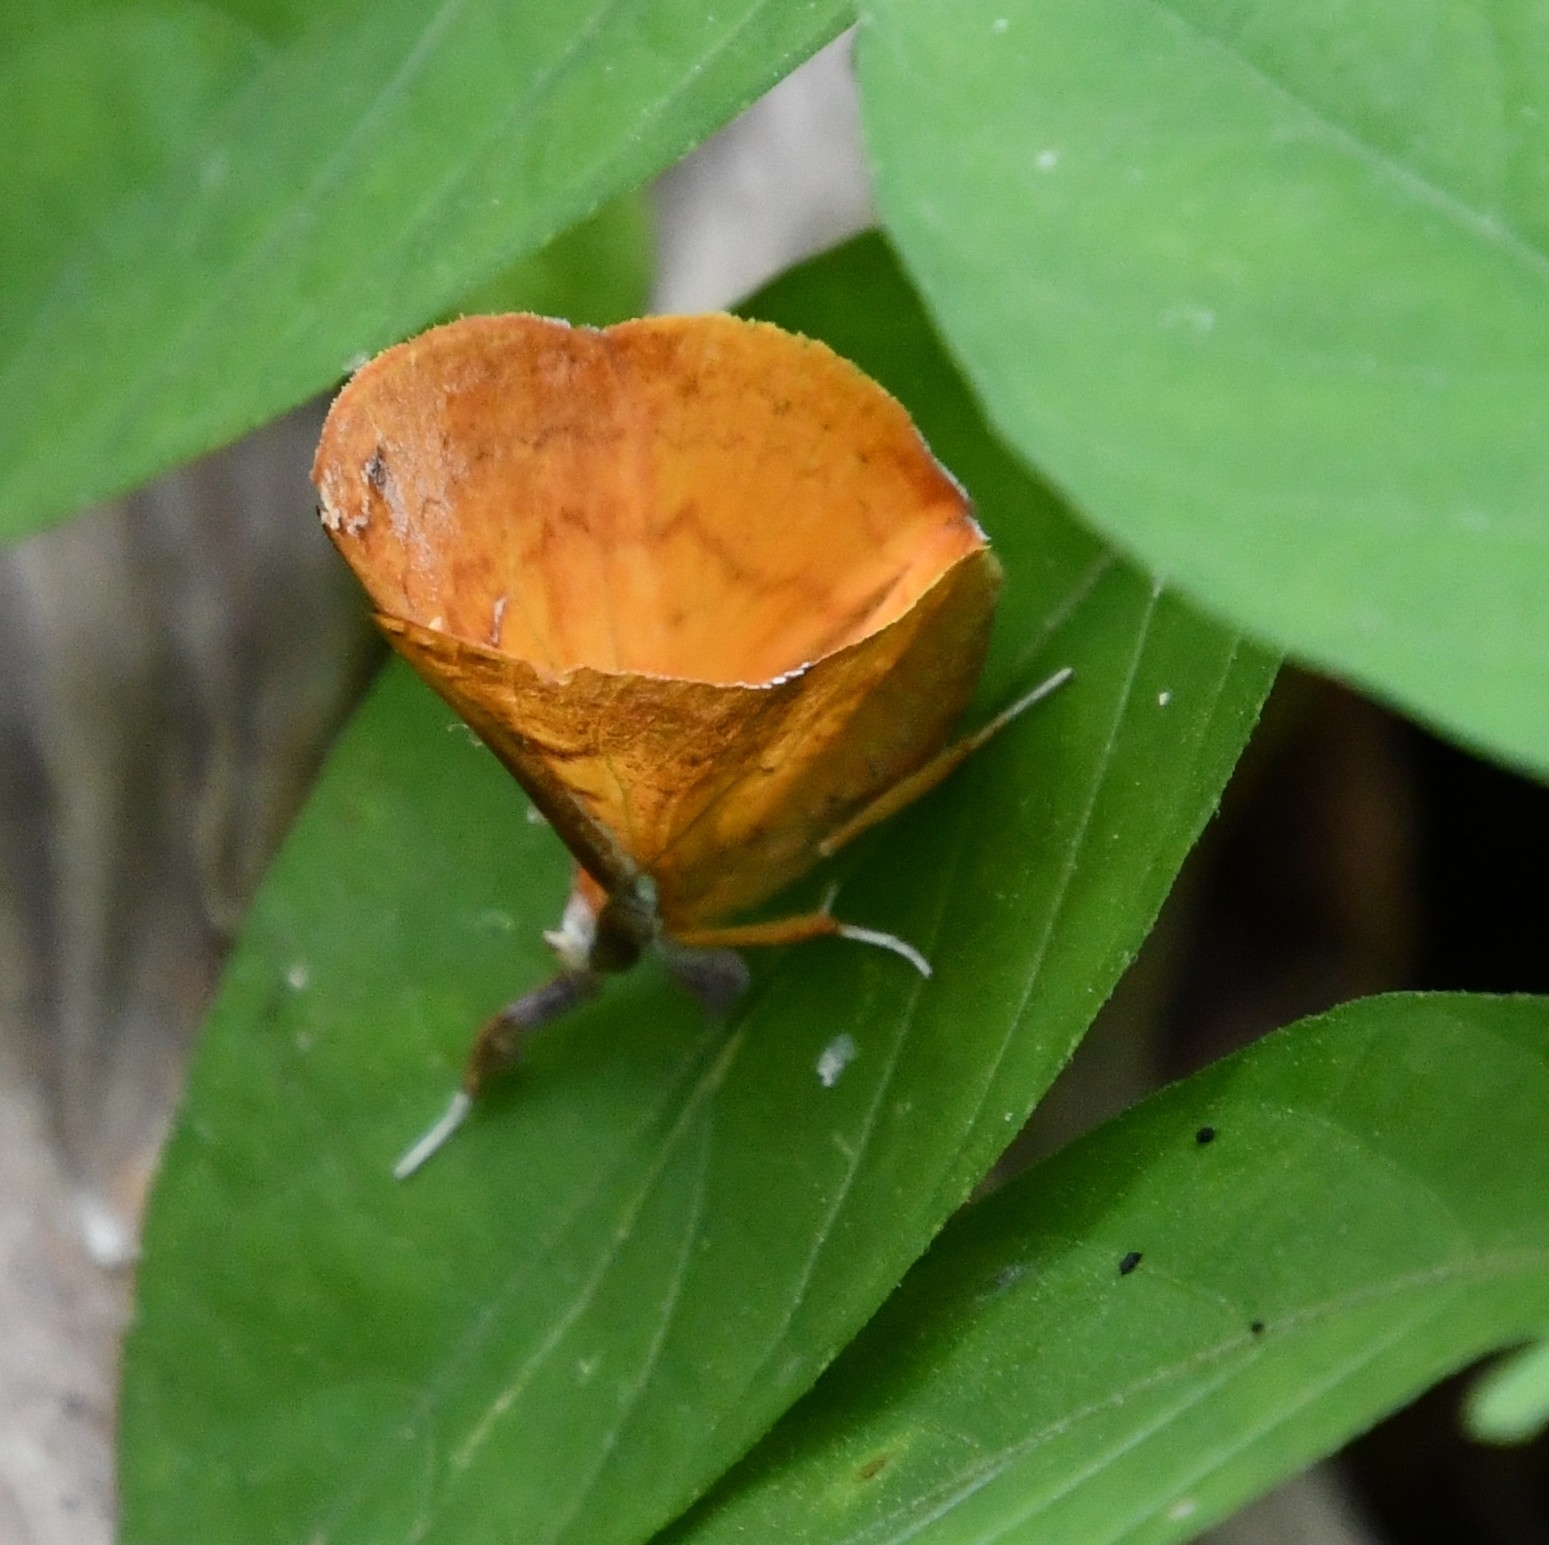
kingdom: Animalia
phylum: Arthropoda
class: Insecta
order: Lepidoptera
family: Erebidae
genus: Bematha
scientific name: Bematha extensa
